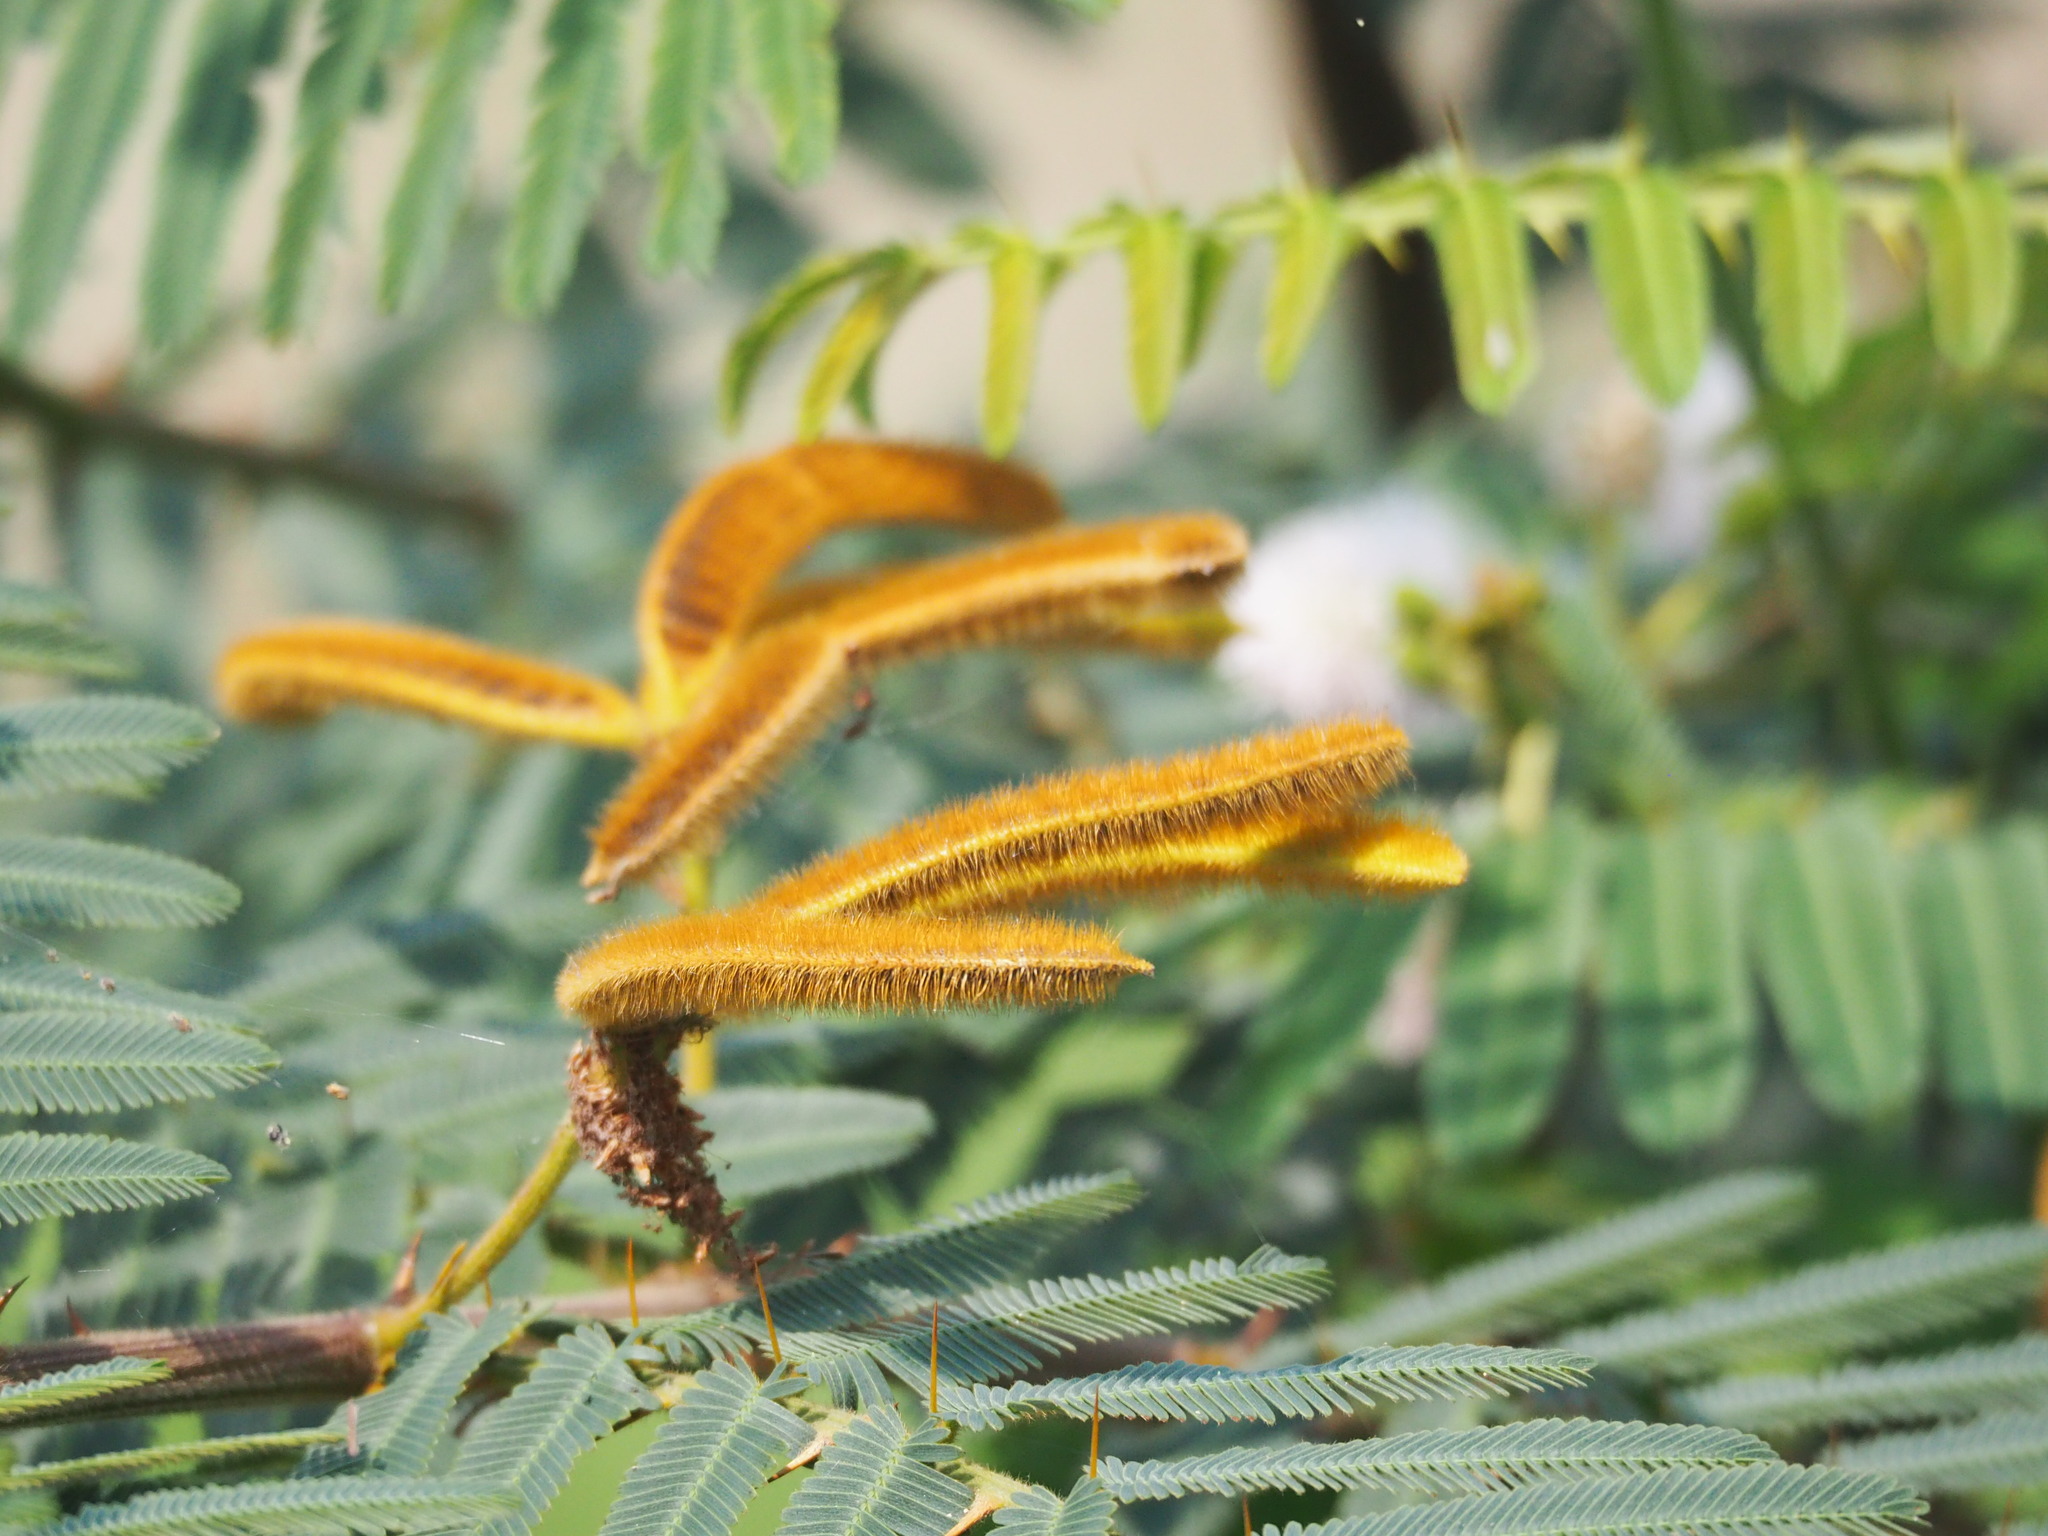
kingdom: Plantae
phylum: Tracheophyta
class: Magnoliopsida
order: Fabales
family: Fabaceae
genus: Mimosa
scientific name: Mimosa pigra
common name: Black mimosa
